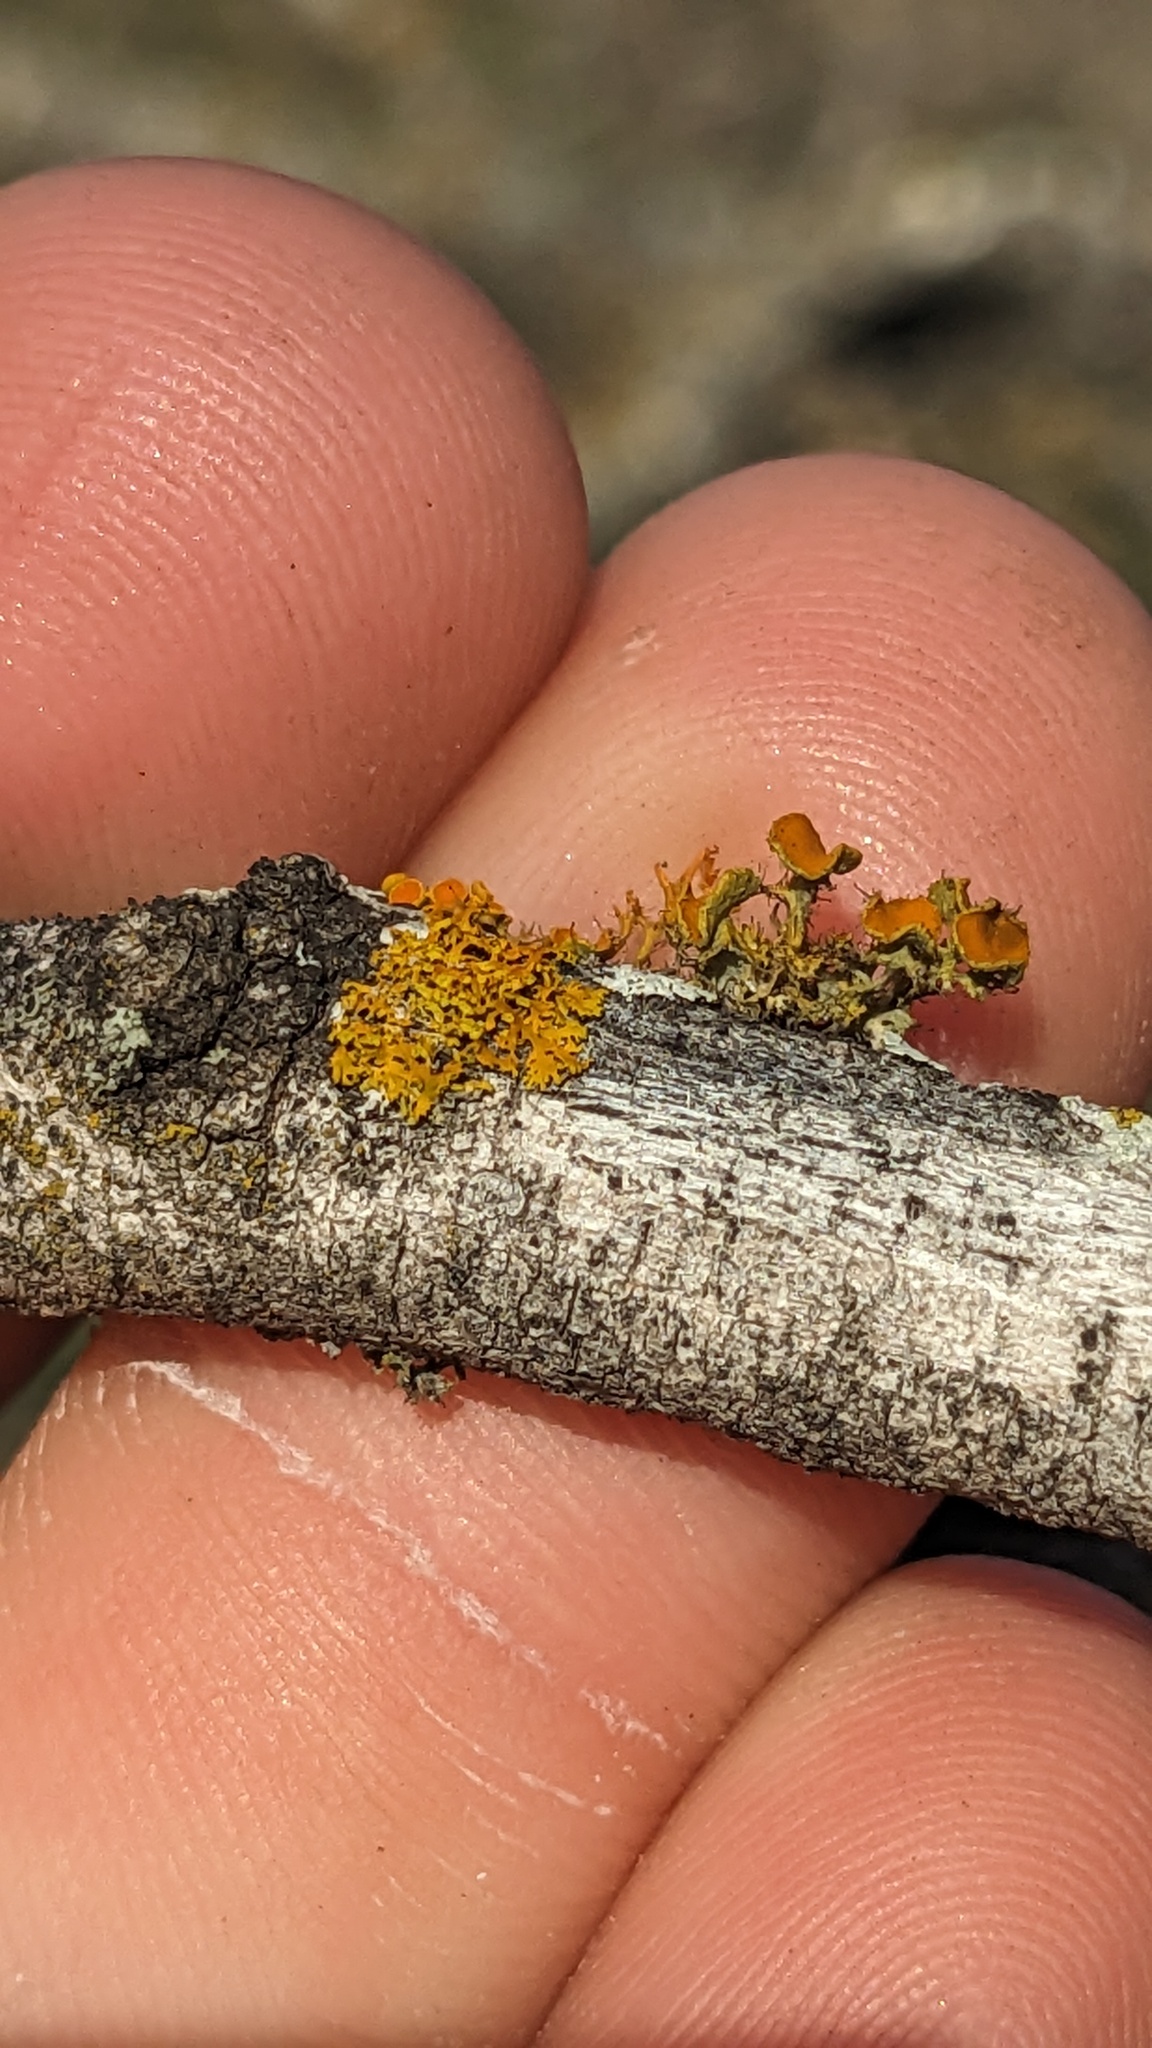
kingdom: Fungi
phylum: Ascomycota
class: Lecanoromycetes
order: Teloschistales
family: Teloschistaceae
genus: Niorma
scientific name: Niorma chrysophthalma
